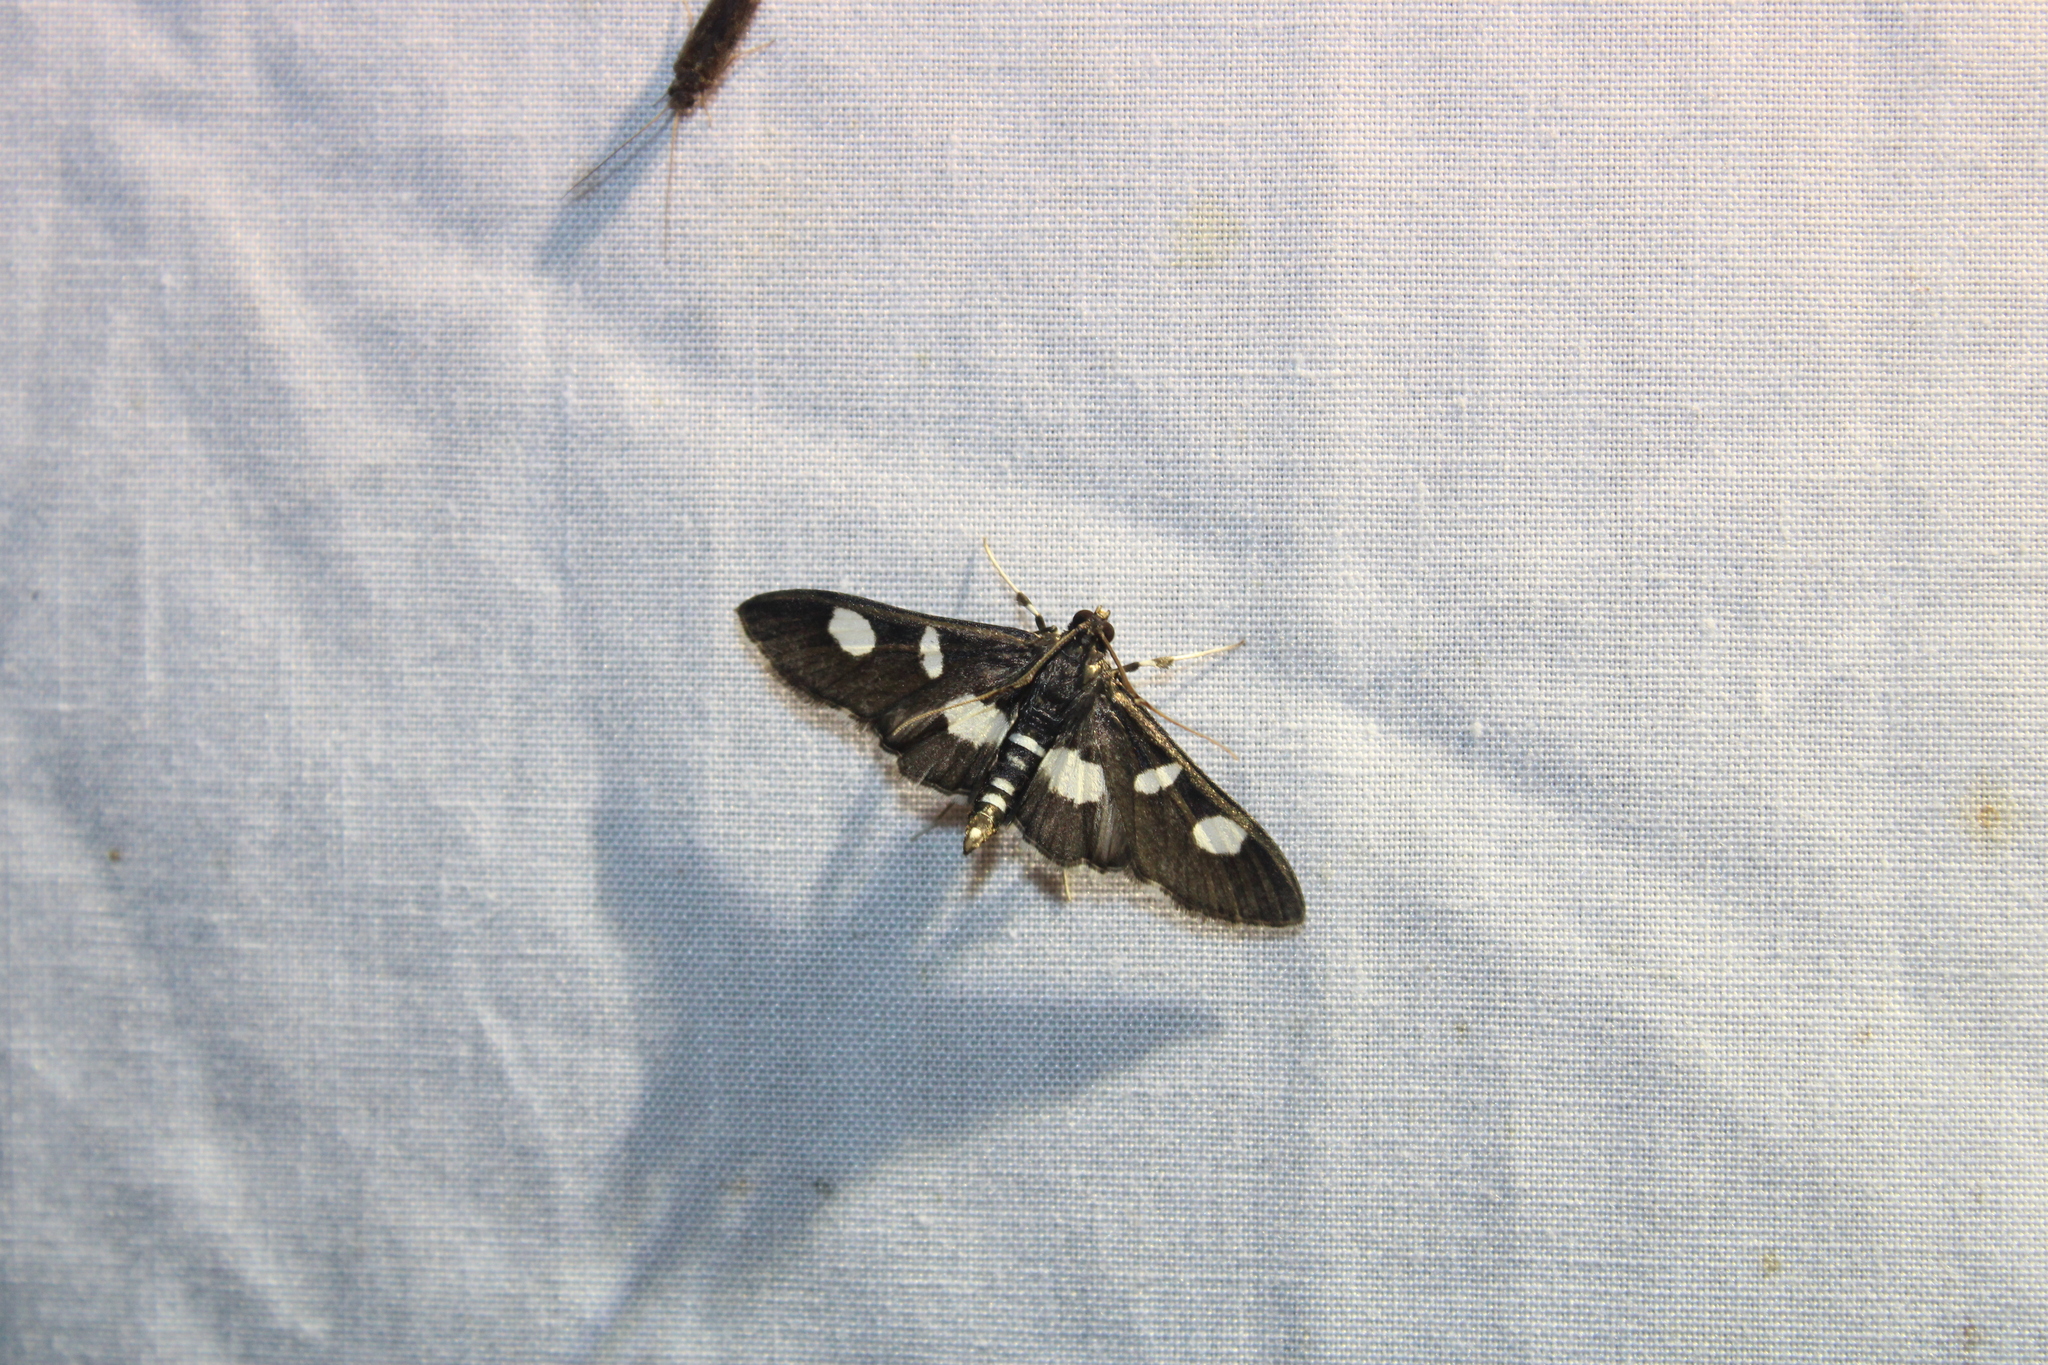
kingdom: Animalia
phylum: Arthropoda
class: Insecta
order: Lepidoptera
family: Crambidae
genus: Desmia
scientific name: Desmia
